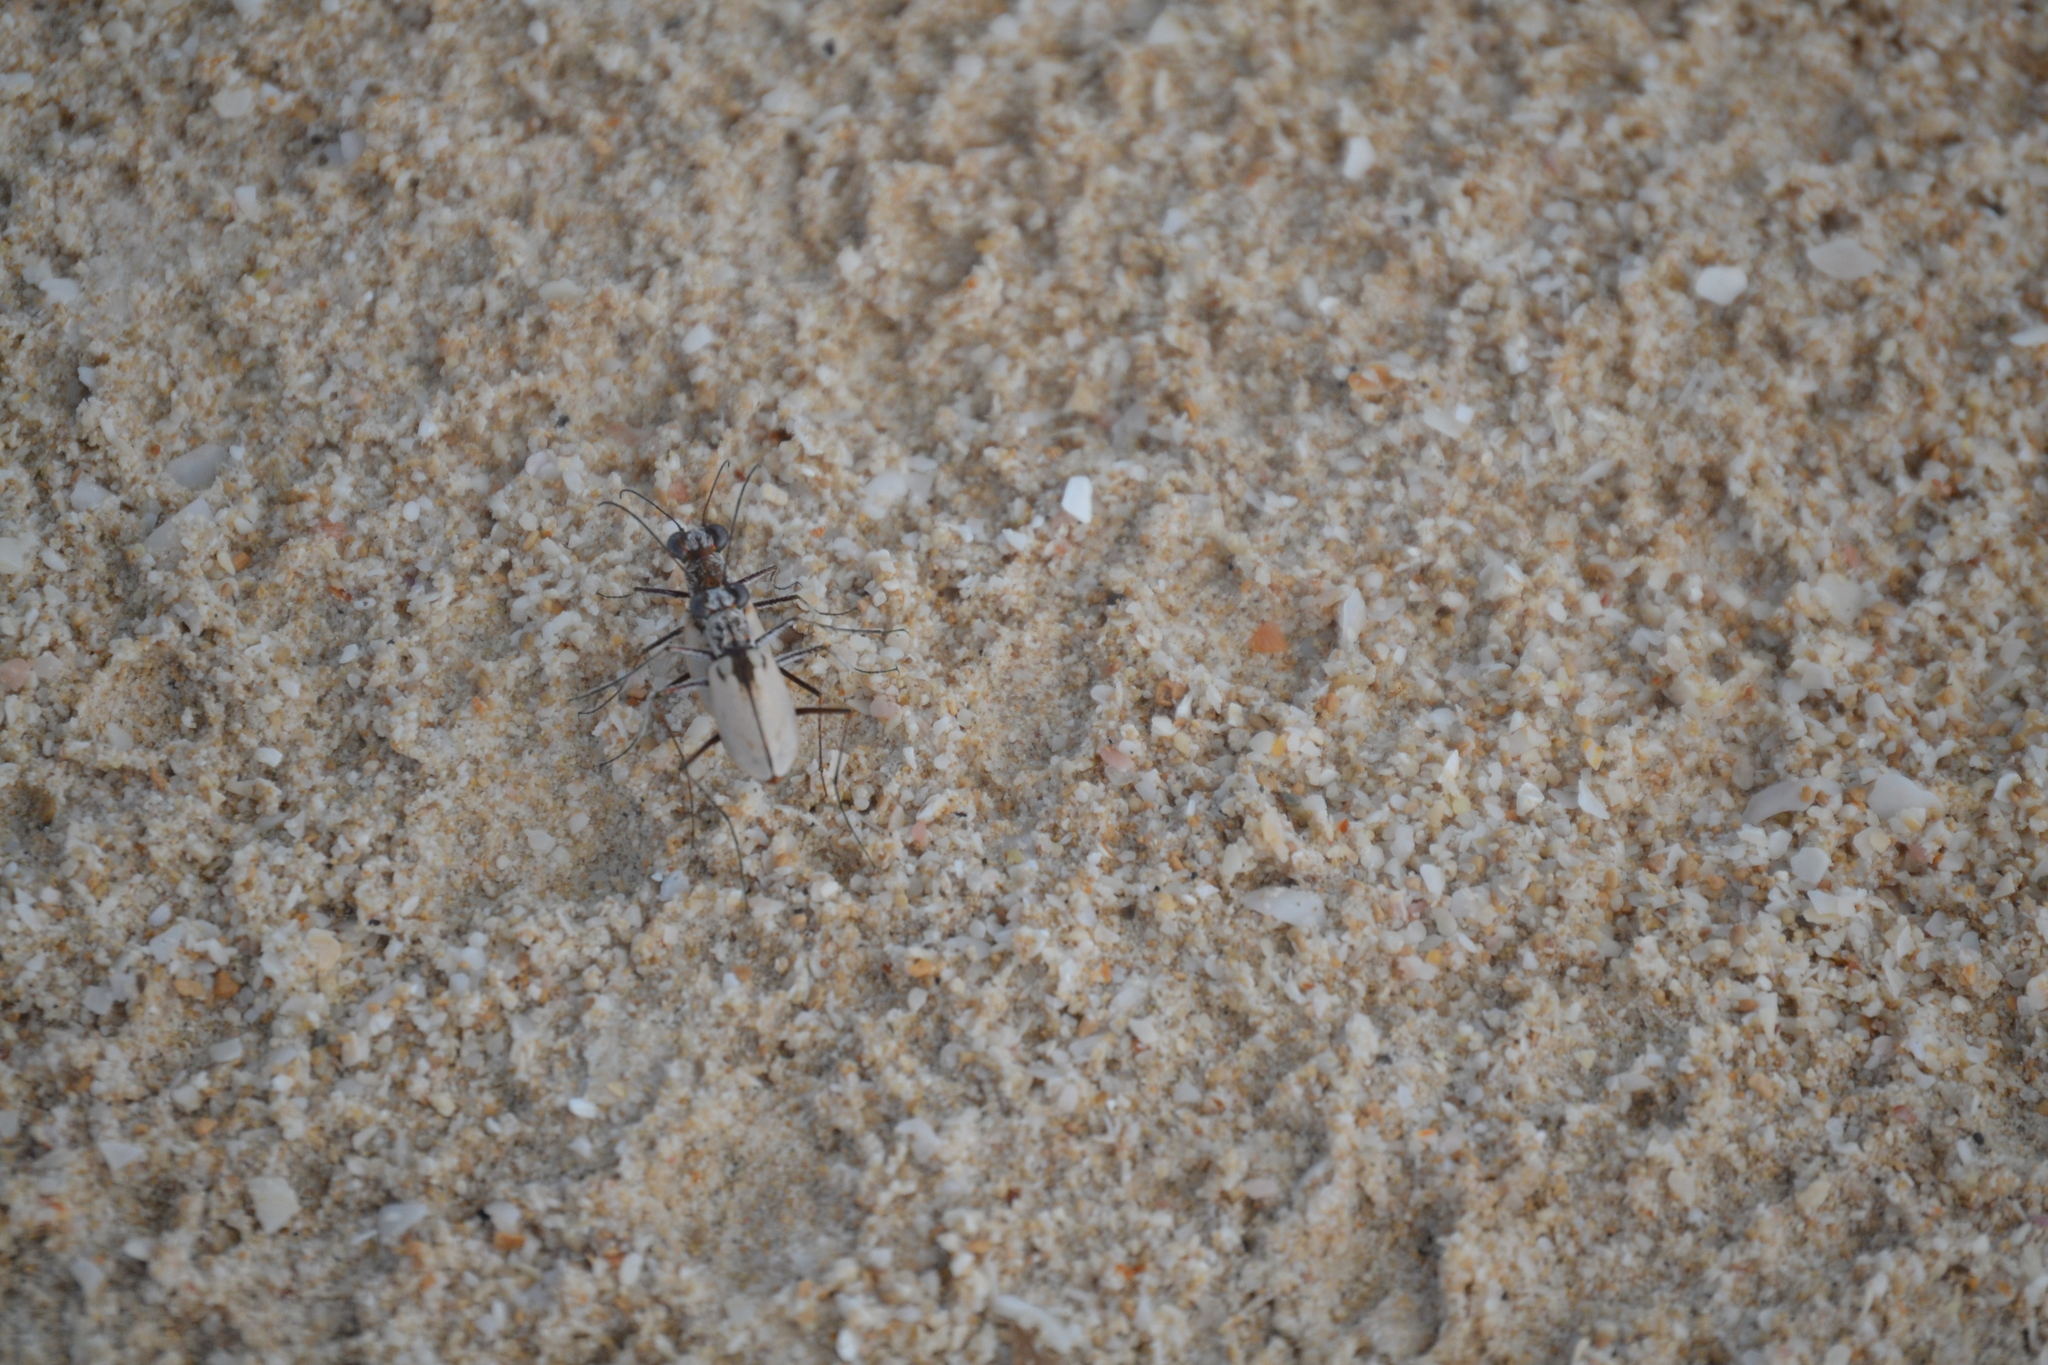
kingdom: Animalia
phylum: Arthropoda
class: Insecta
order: Coleoptera
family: Carabidae
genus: Ellipsoptera
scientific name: Ellipsoptera hamata
